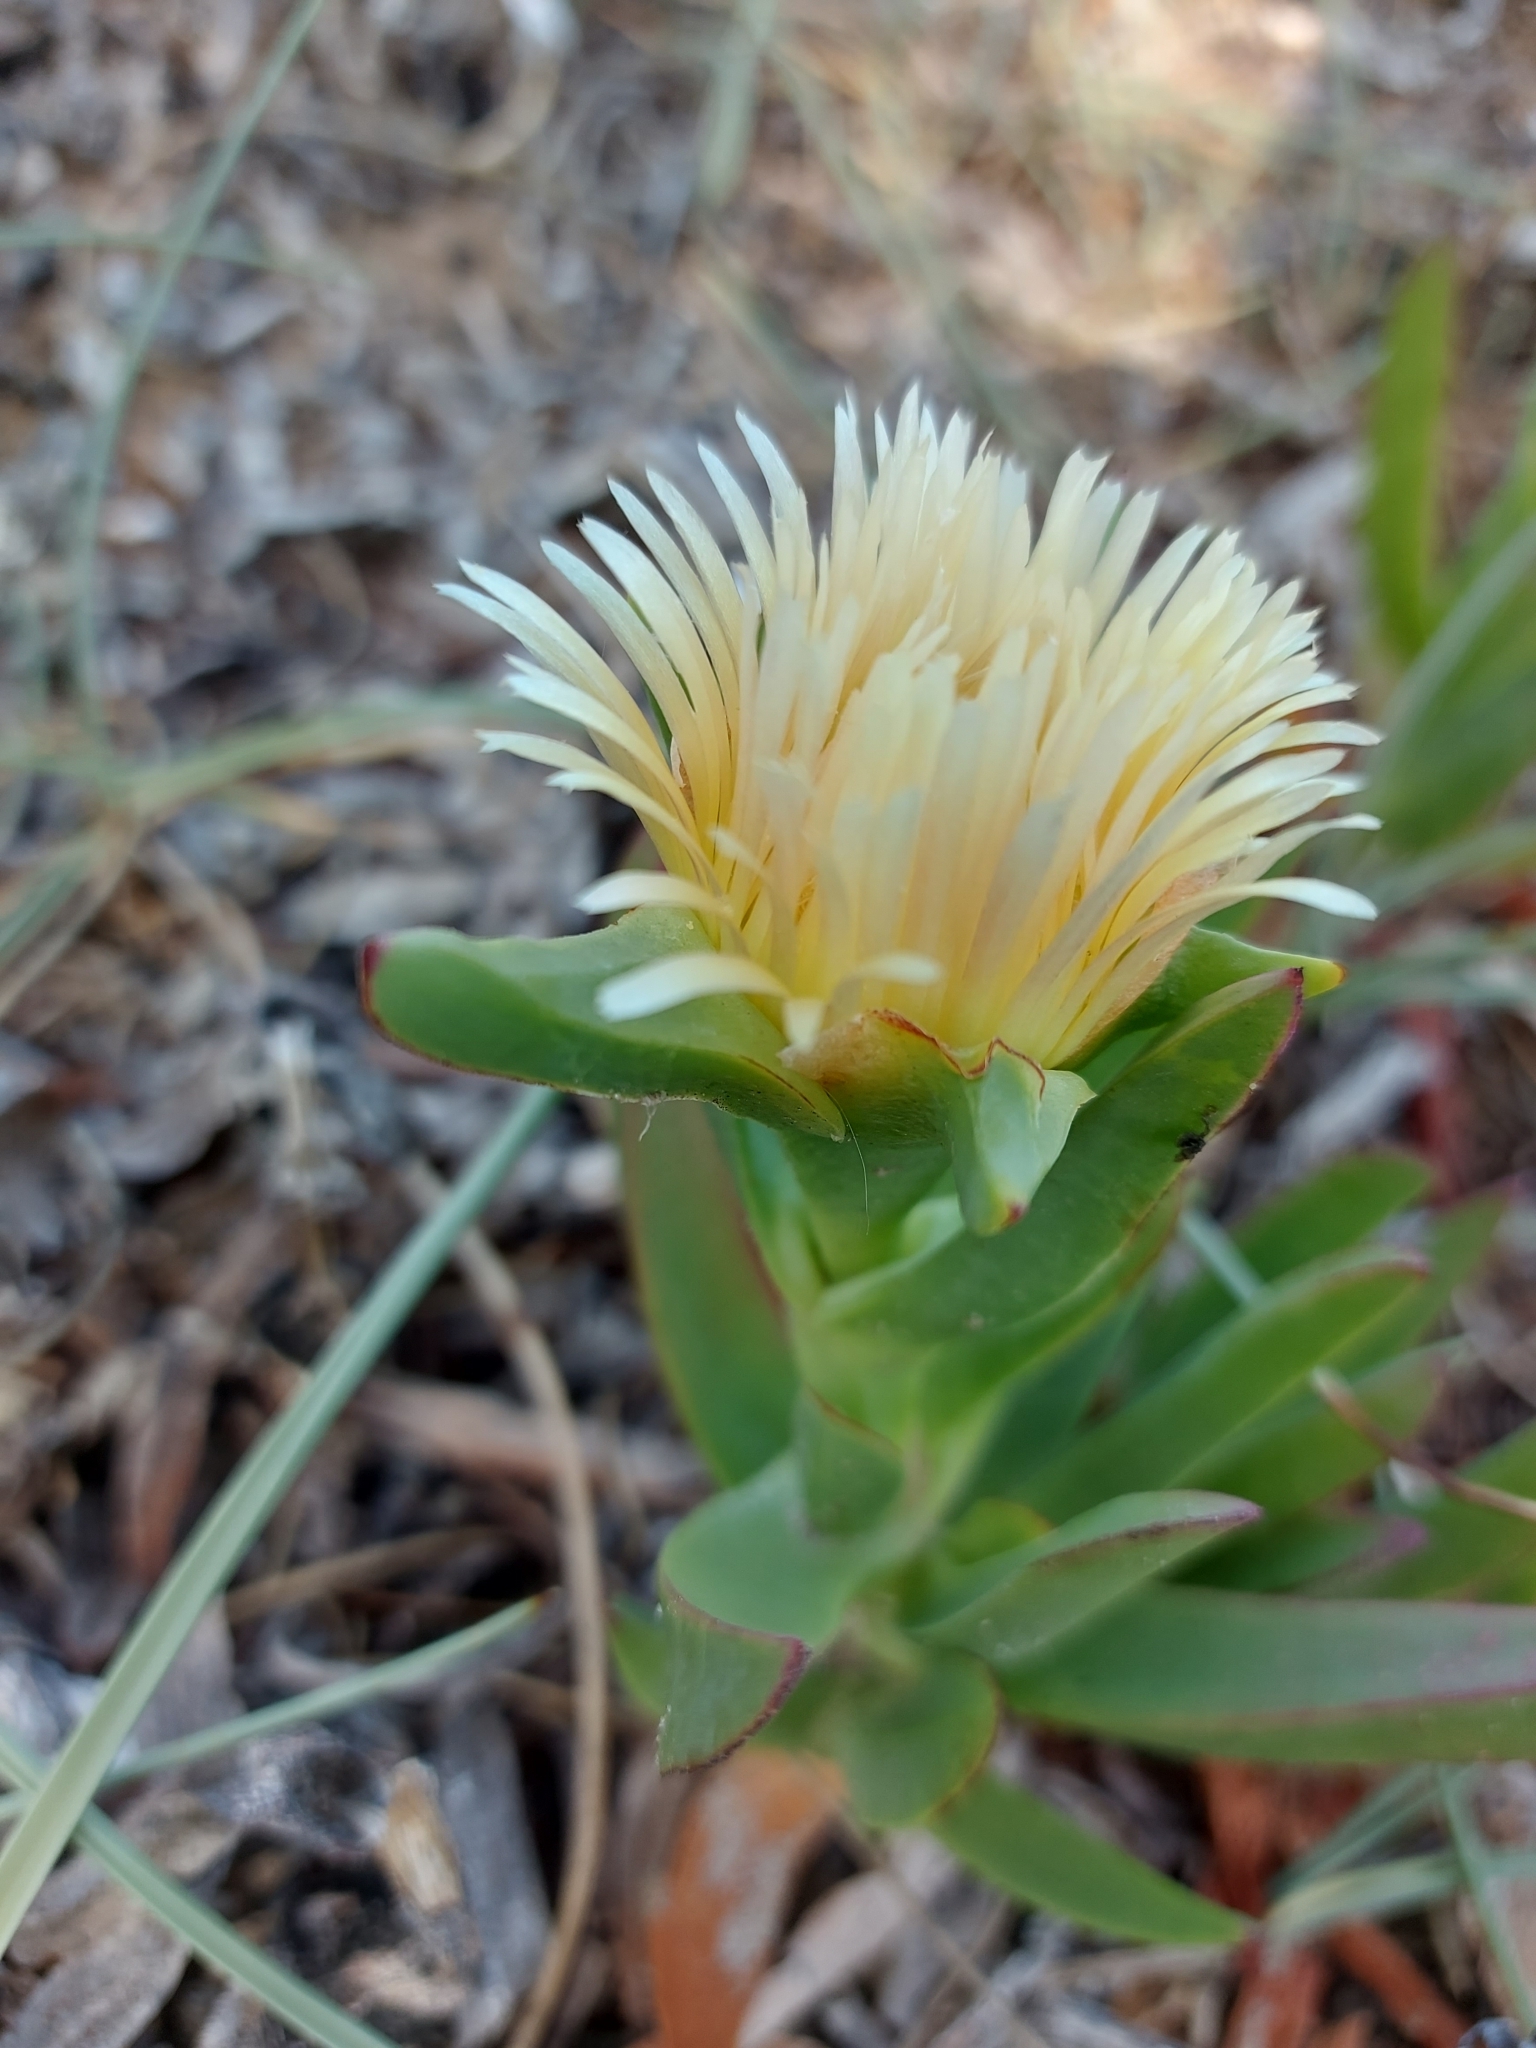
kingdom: Plantae
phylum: Tracheophyta
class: Magnoliopsida
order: Caryophyllales
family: Aizoaceae
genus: Carpobrotus
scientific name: Carpobrotus edulis
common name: Hottentot-fig
